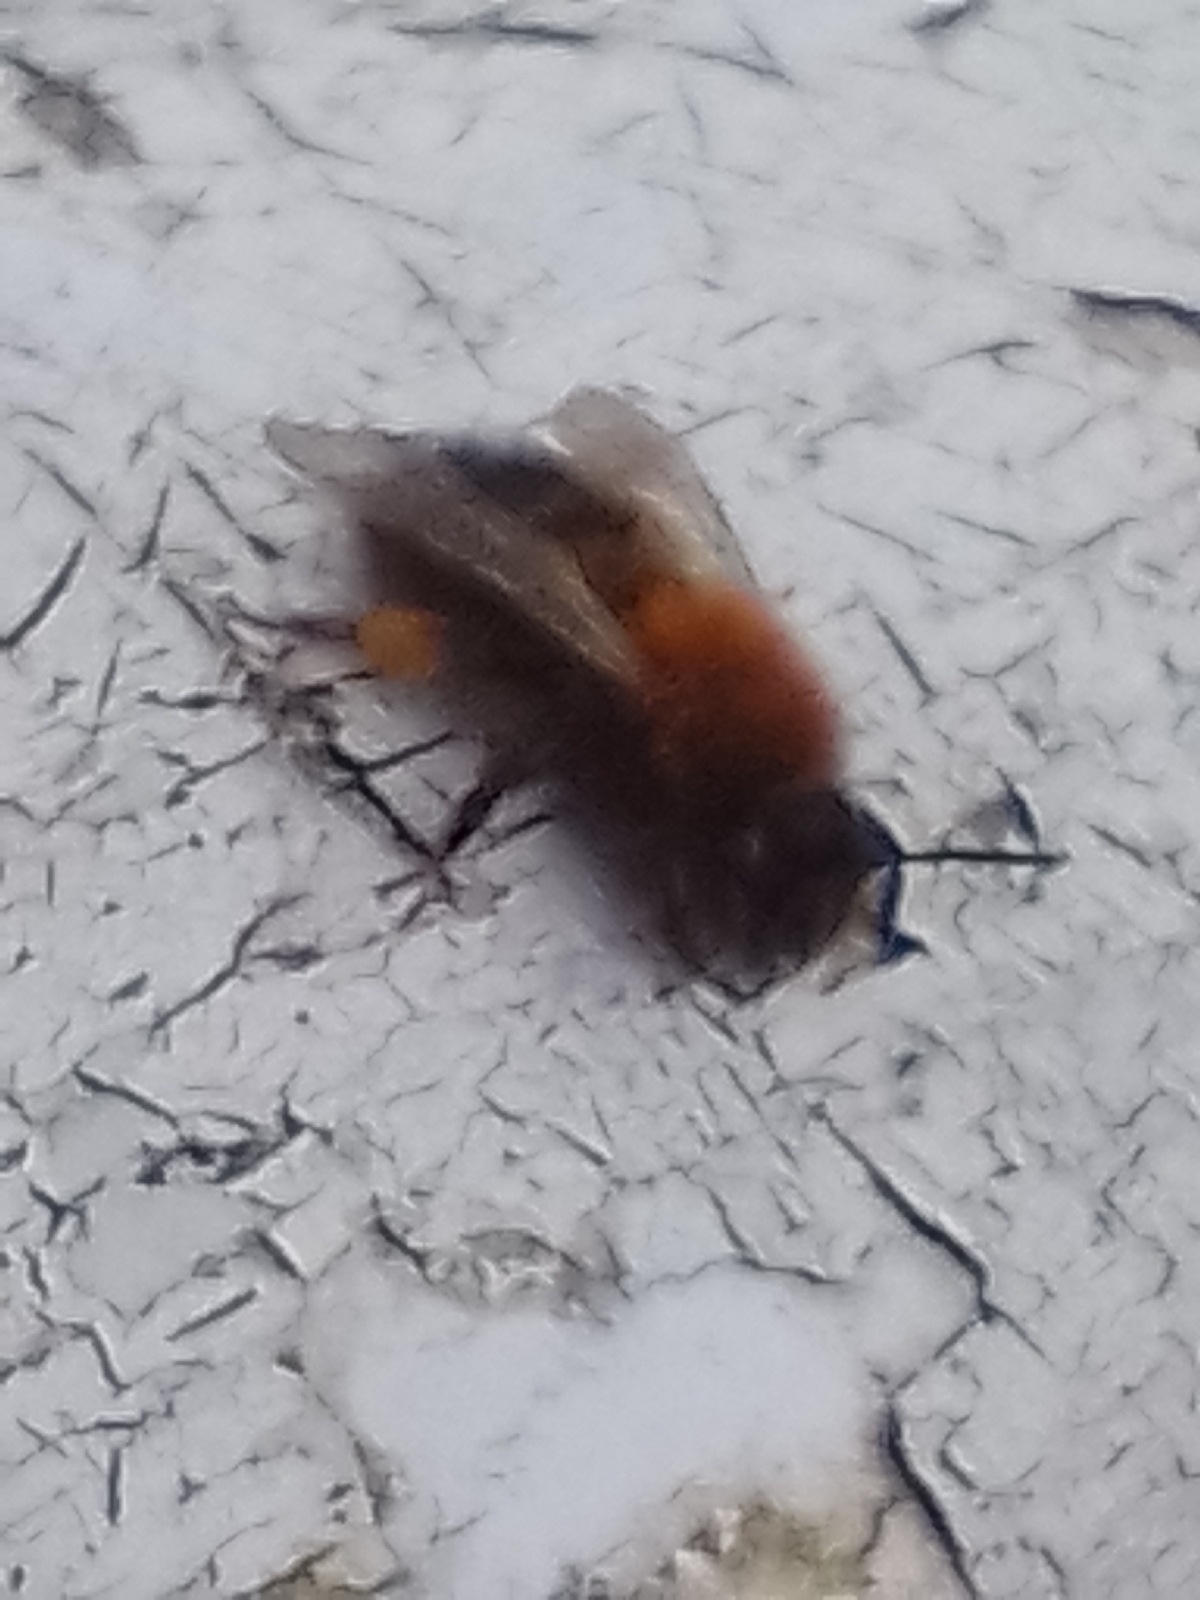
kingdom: Animalia
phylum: Arthropoda
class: Insecta
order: Hymenoptera
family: Andrenidae
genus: Andrena
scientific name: Andrena clarkella
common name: Clarke's mining bee
